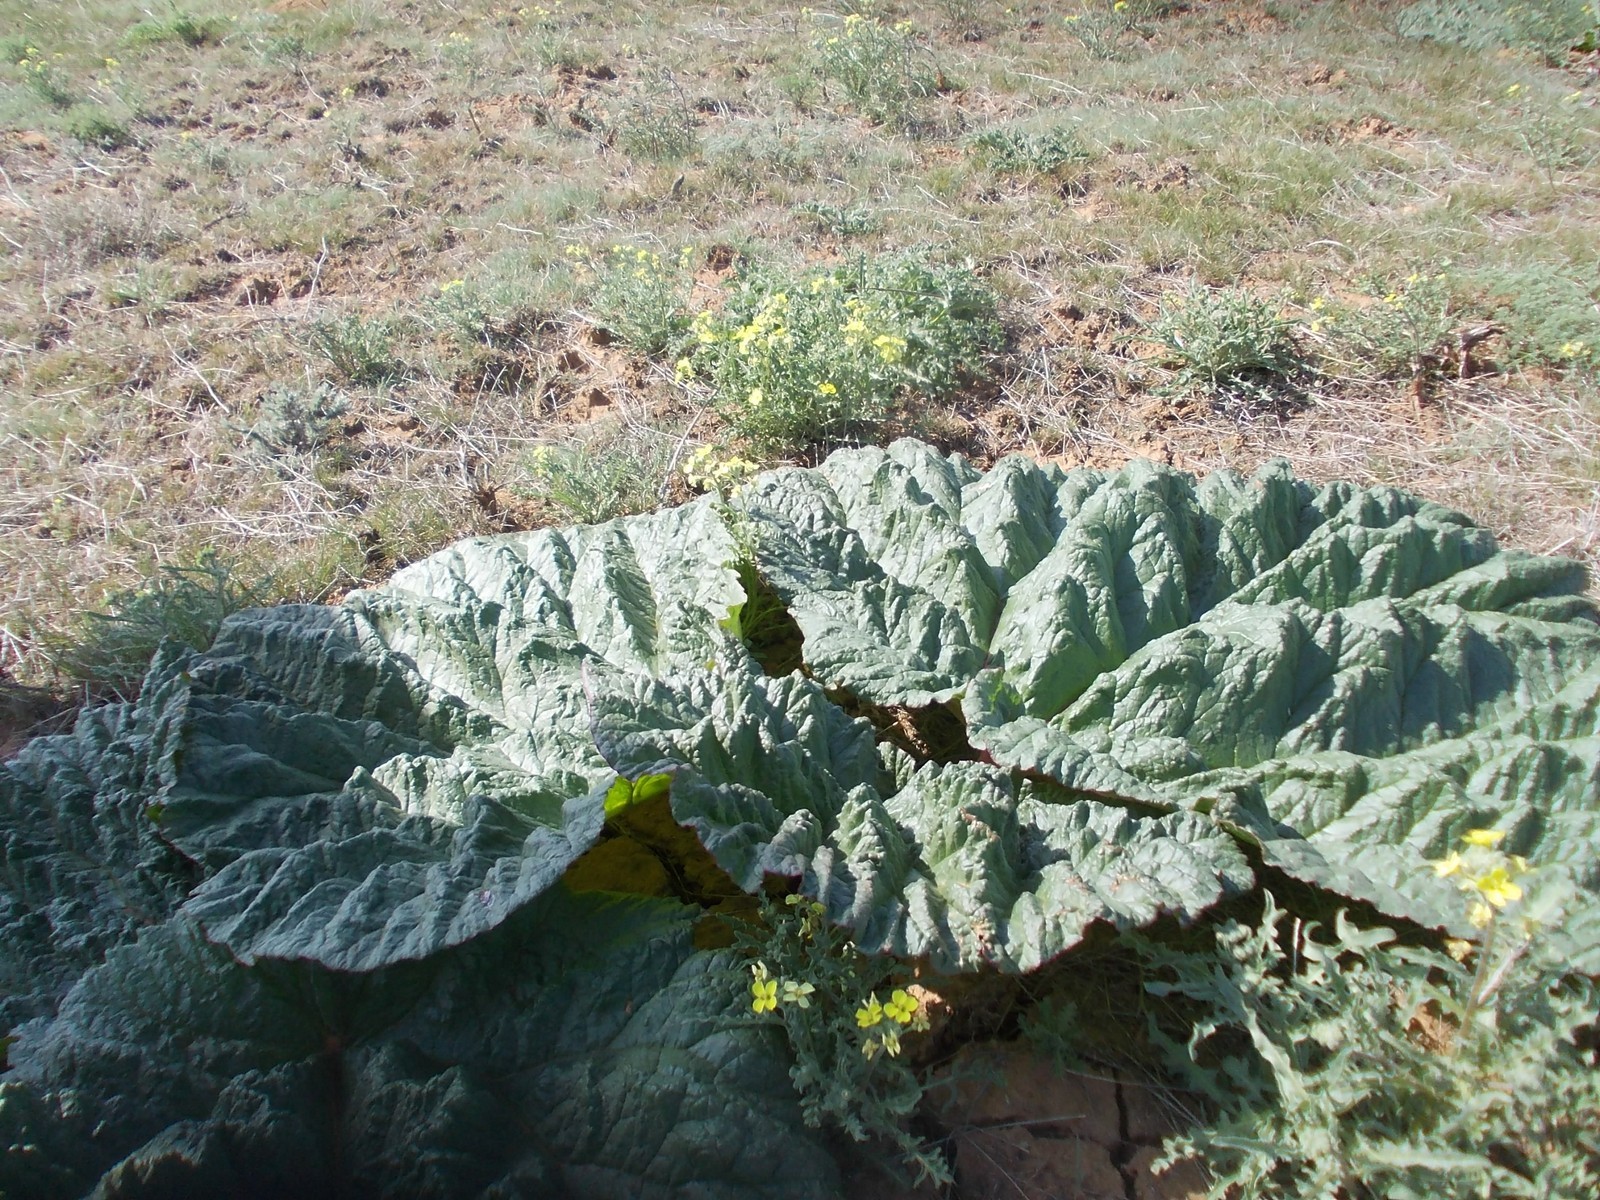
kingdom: Plantae
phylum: Tracheophyta
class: Magnoliopsida
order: Caryophyllales
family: Polygonaceae
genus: Rheum
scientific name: Rheum tataricum
